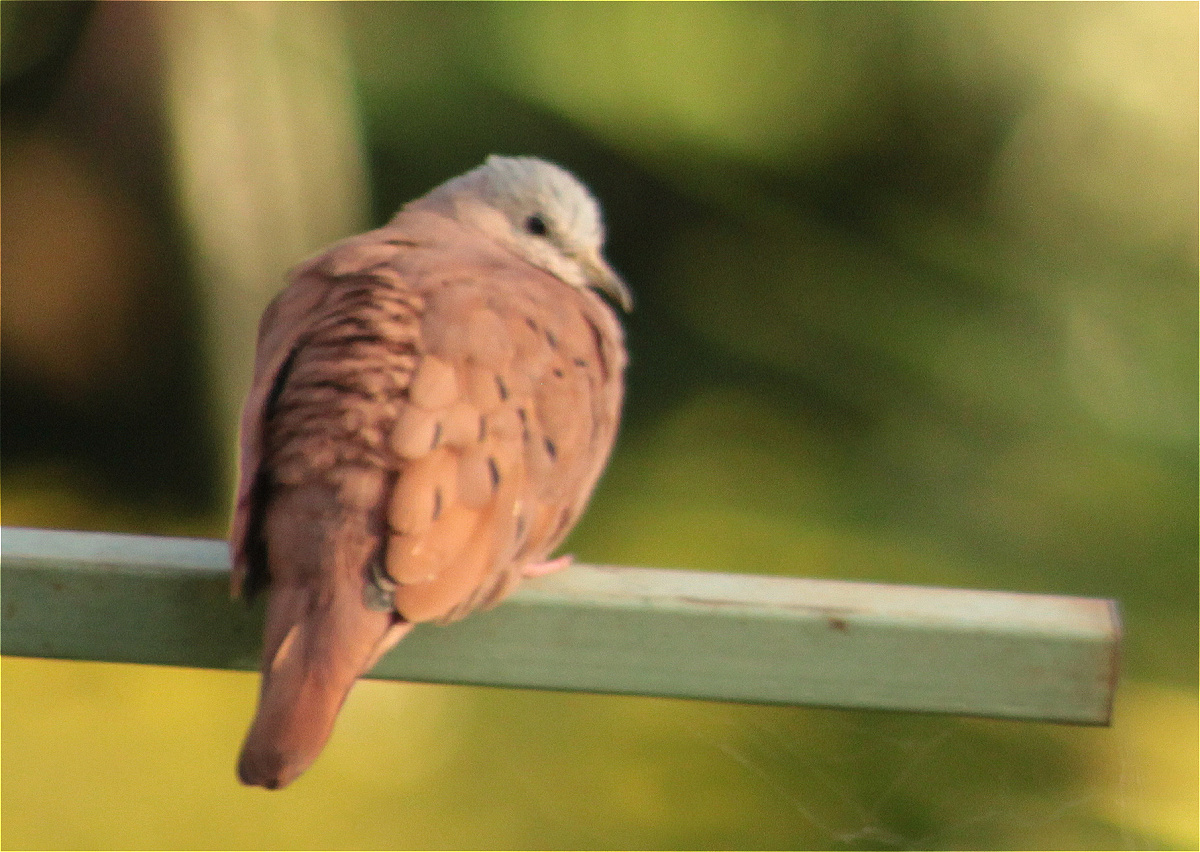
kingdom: Animalia
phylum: Chordata
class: Aves
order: Columbiformes
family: Columbidae
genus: Columbina
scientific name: Columbina talpacoti
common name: Ruddy ground dove
